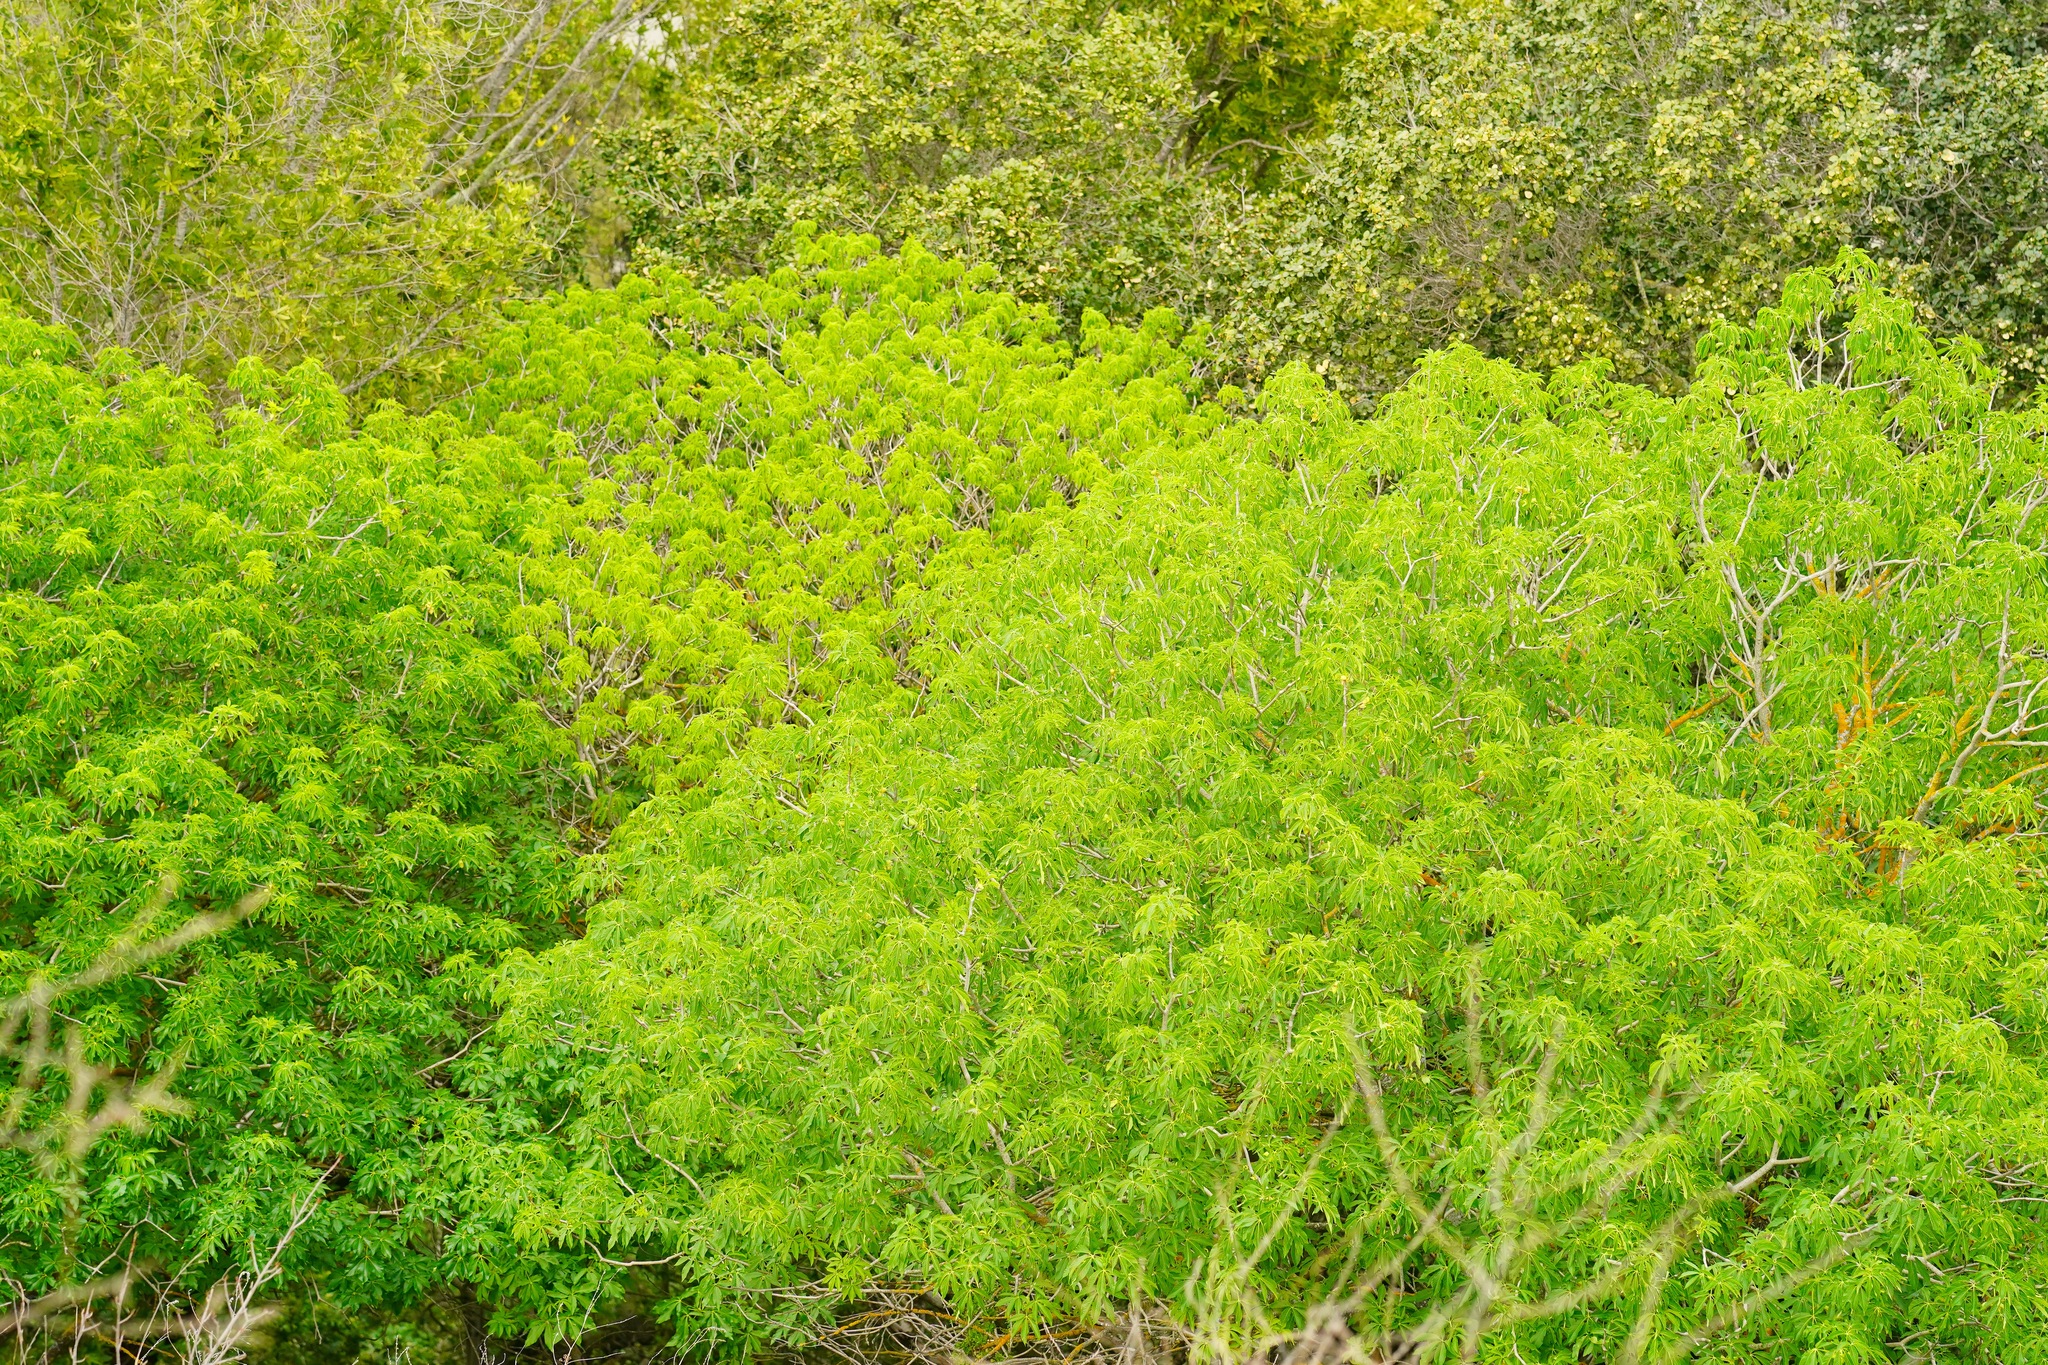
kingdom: Plantae
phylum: Tracheophyta
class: Magnoliopsida
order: Sapindales
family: Sapindaceae
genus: Aesculus
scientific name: Aesculus californica
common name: California buckeye
